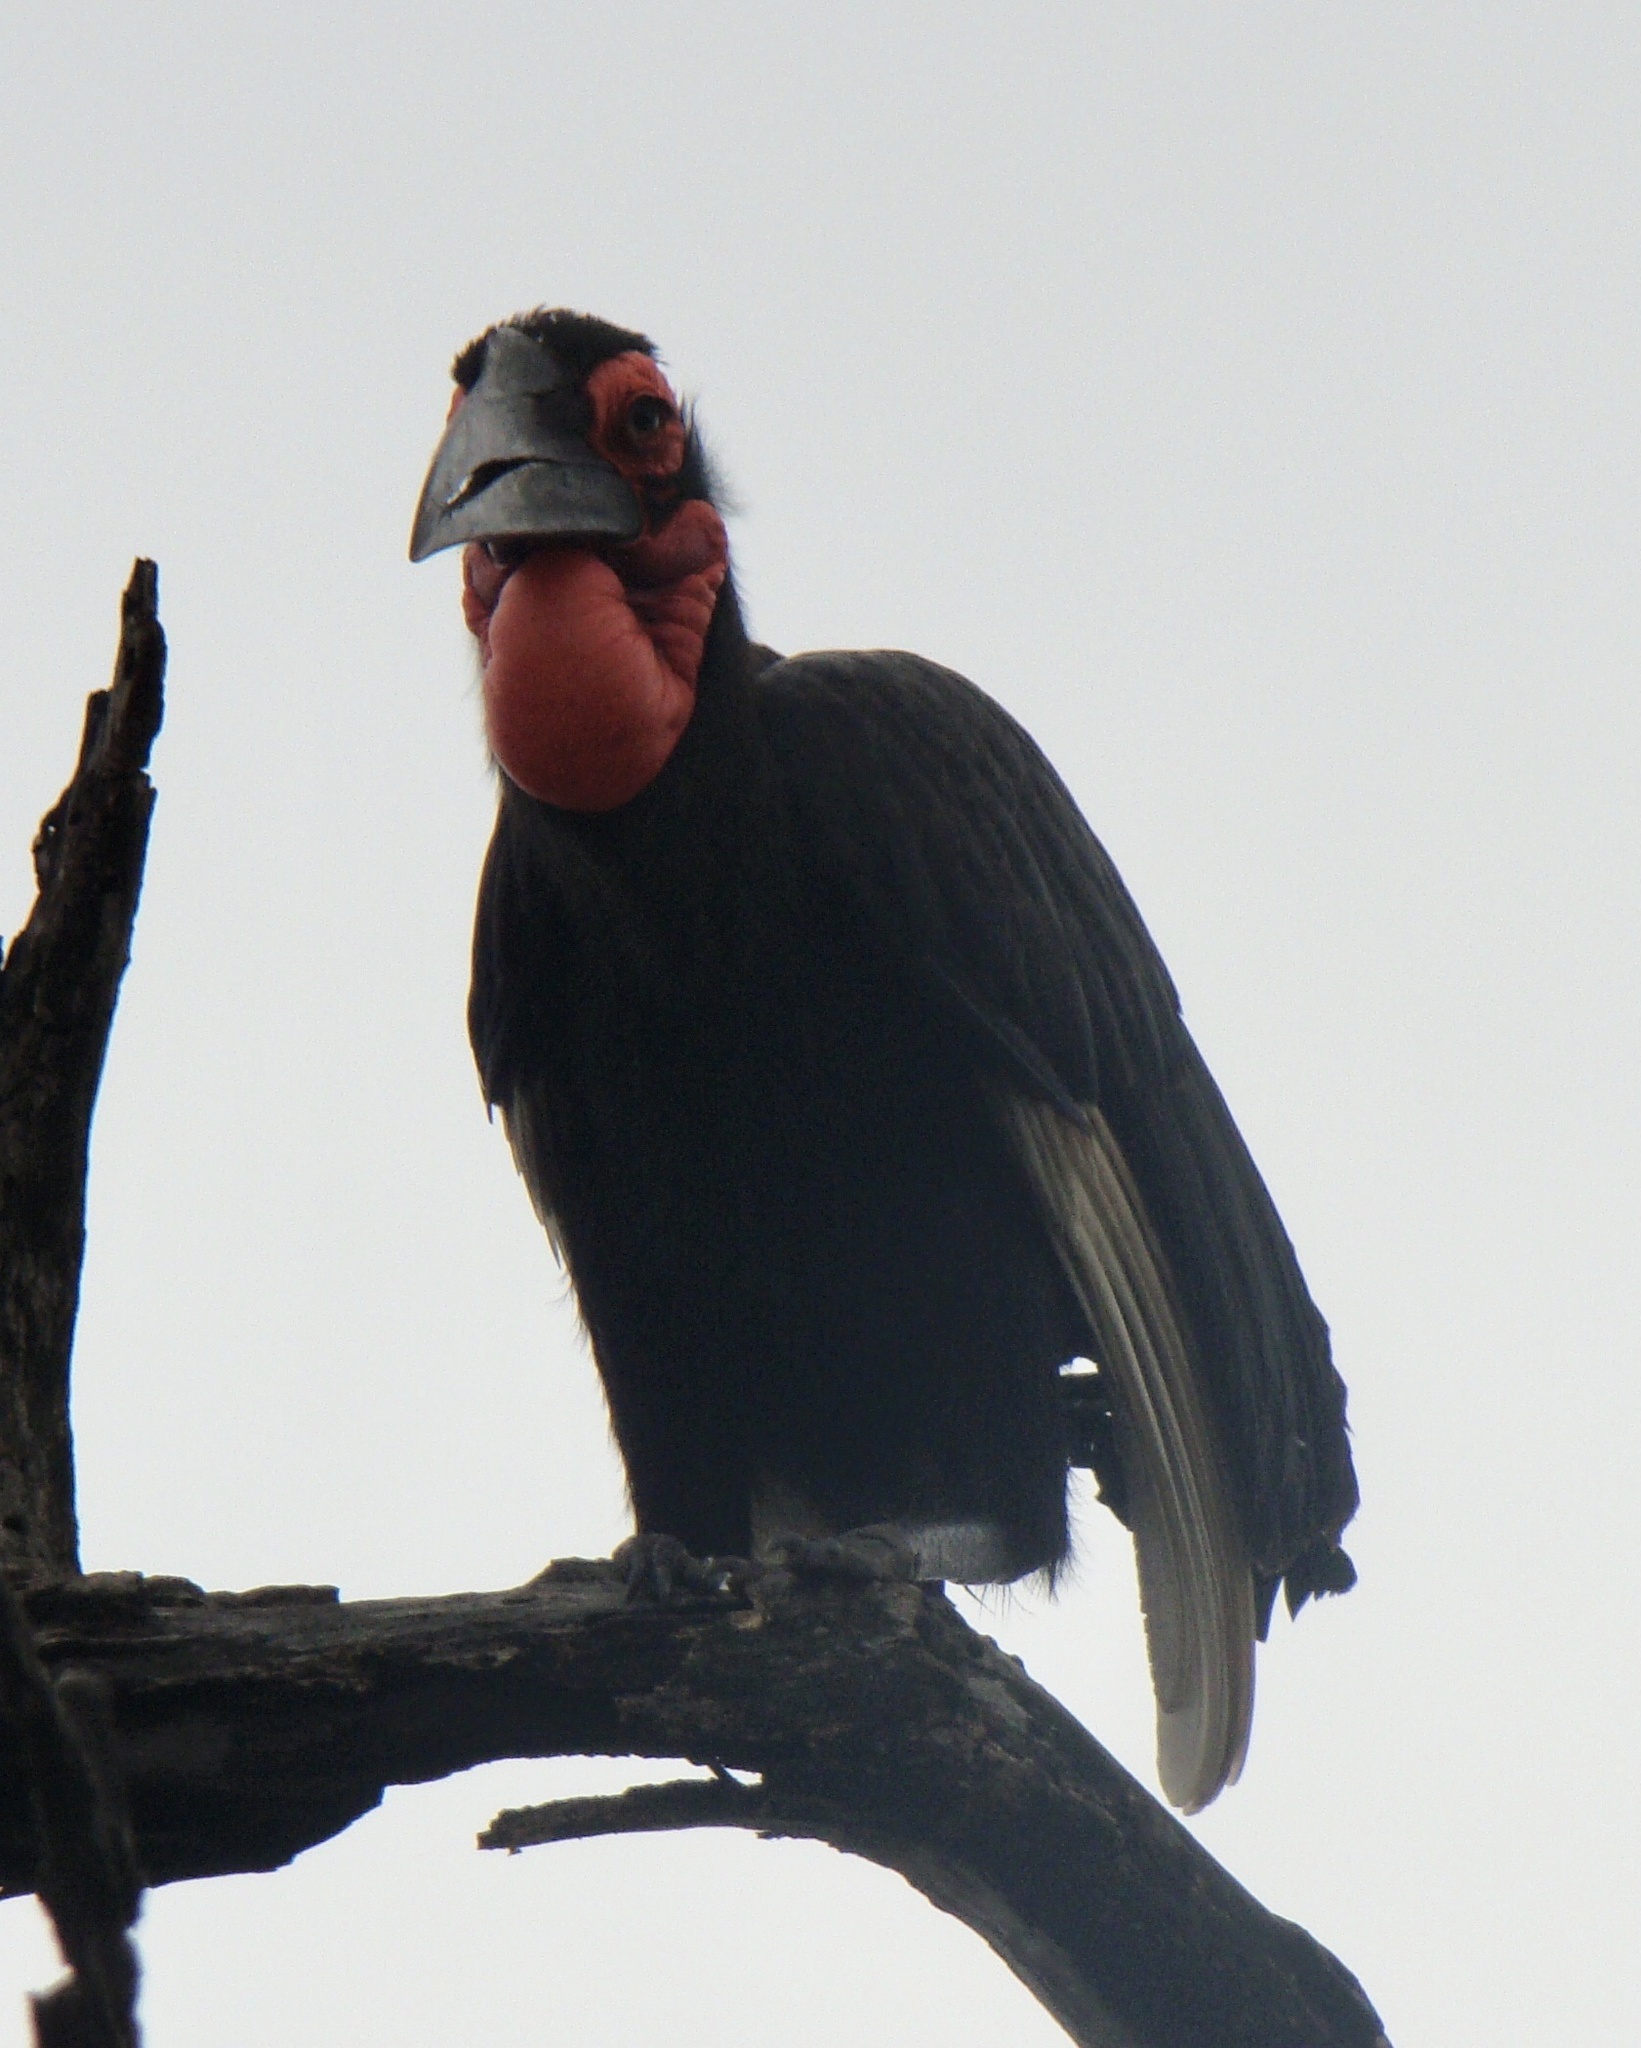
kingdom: Animalia
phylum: Chordata
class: Aves
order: Bucerotiformes
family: Bucorvidae
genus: Bucorvus
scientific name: Bucorvus leadbeateri
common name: Southern ground-hornbill
